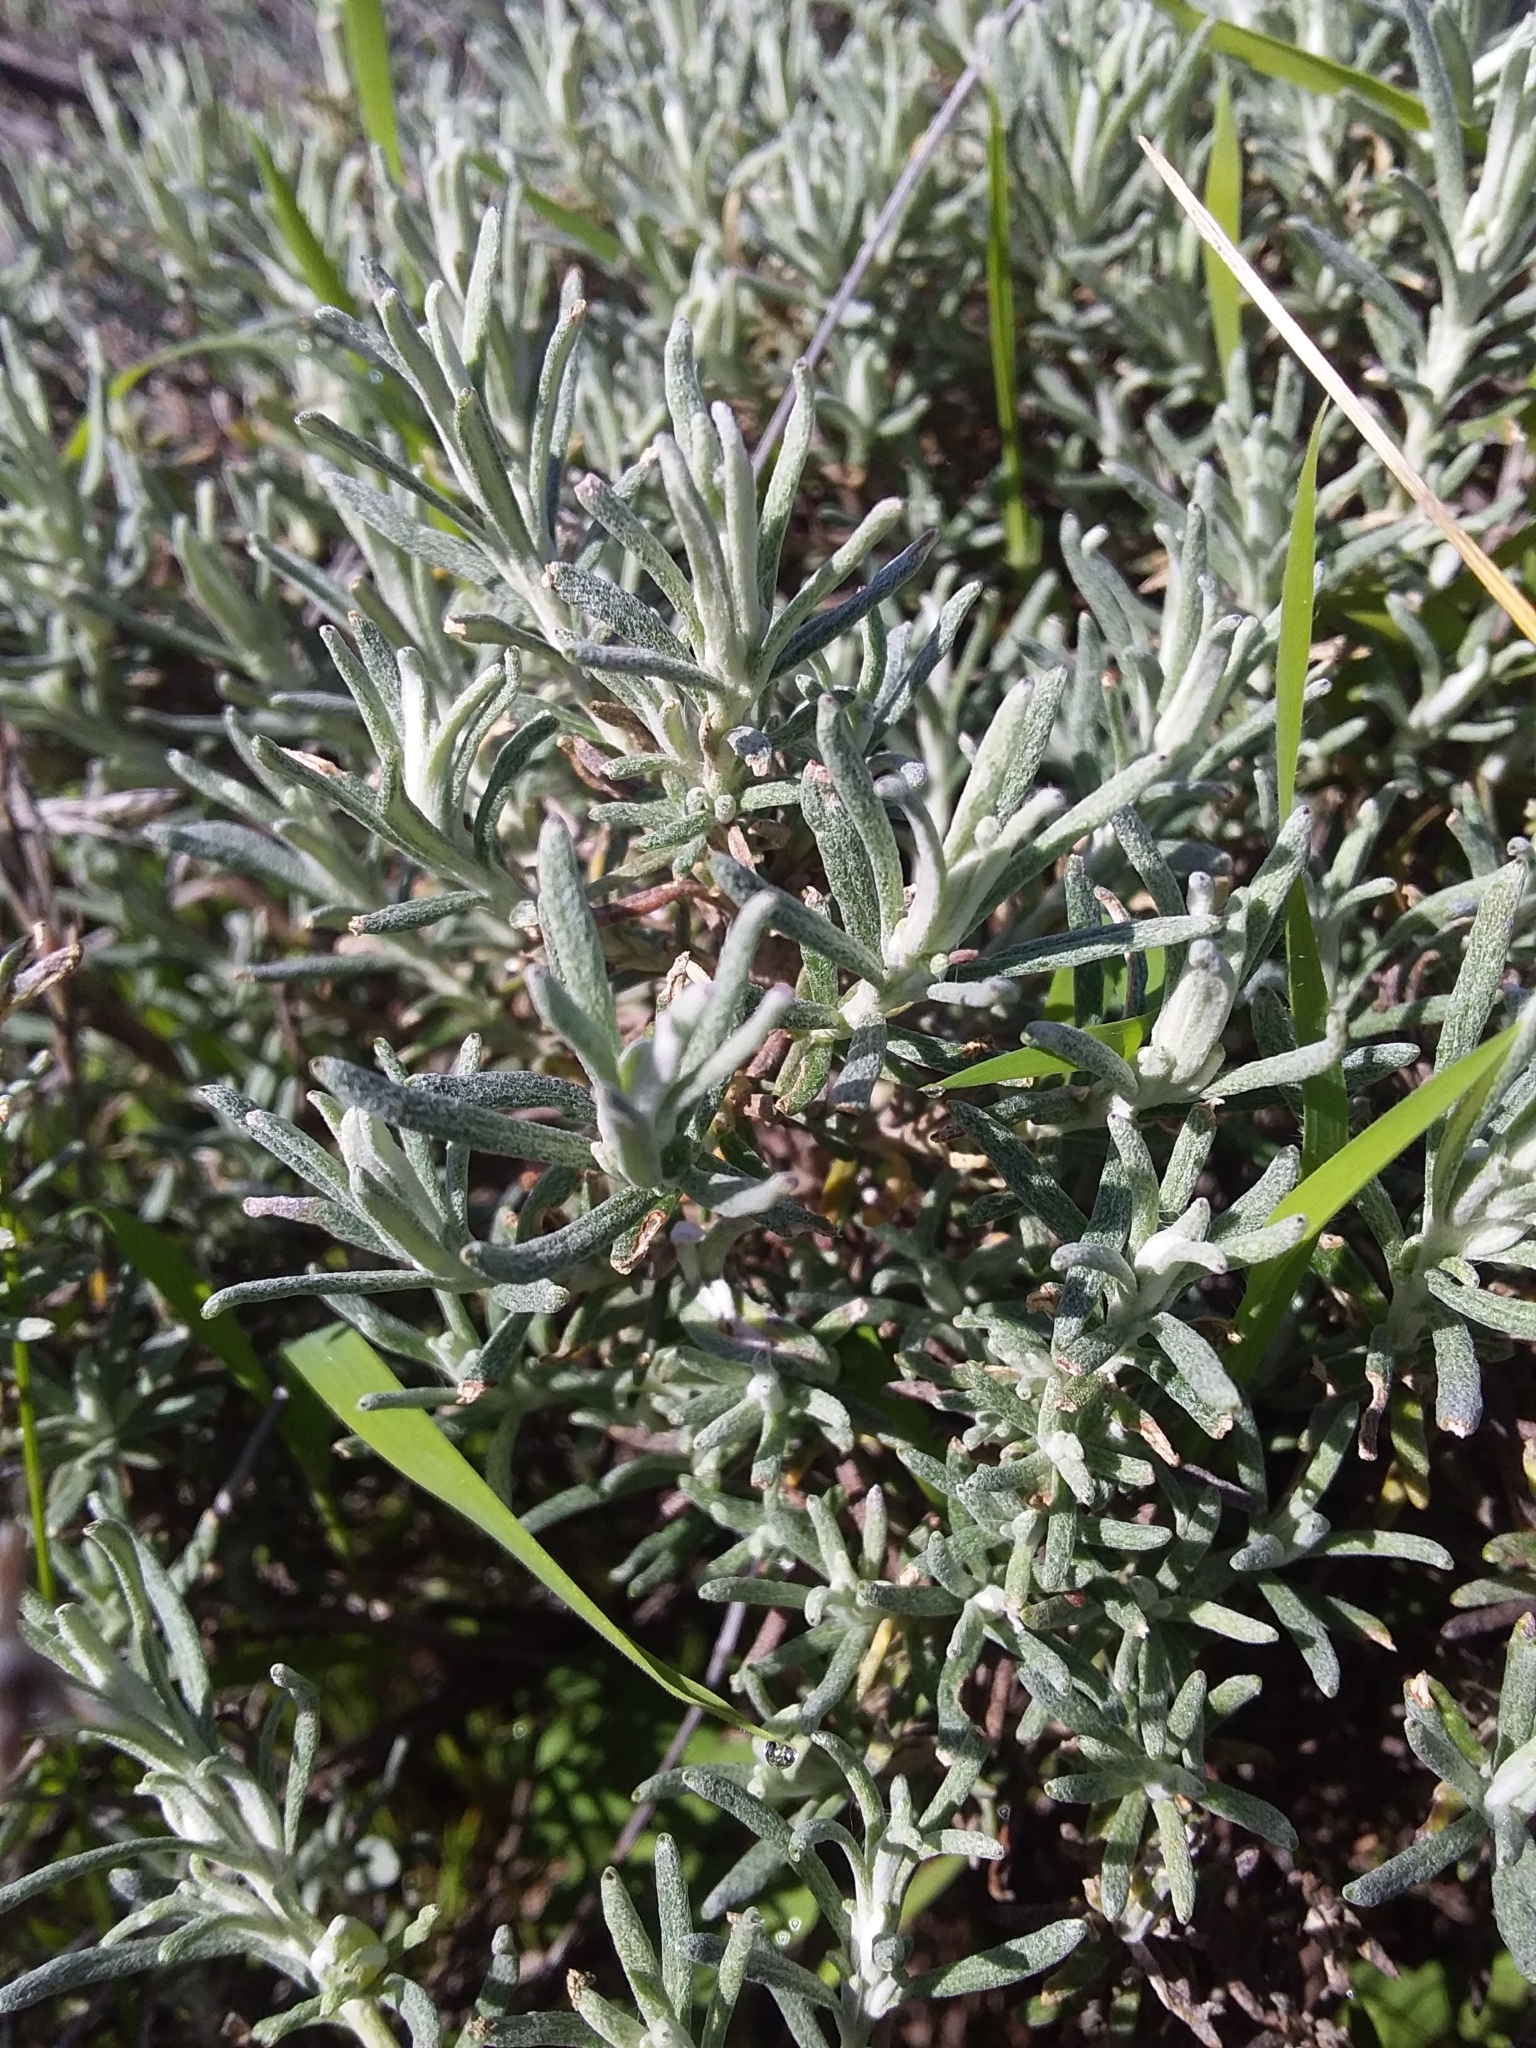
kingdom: Plantae
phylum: Tracheophyta
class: Magnoliopsida
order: Asterales
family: Asteraceae
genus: Olearia
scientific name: Olearia axillaris
